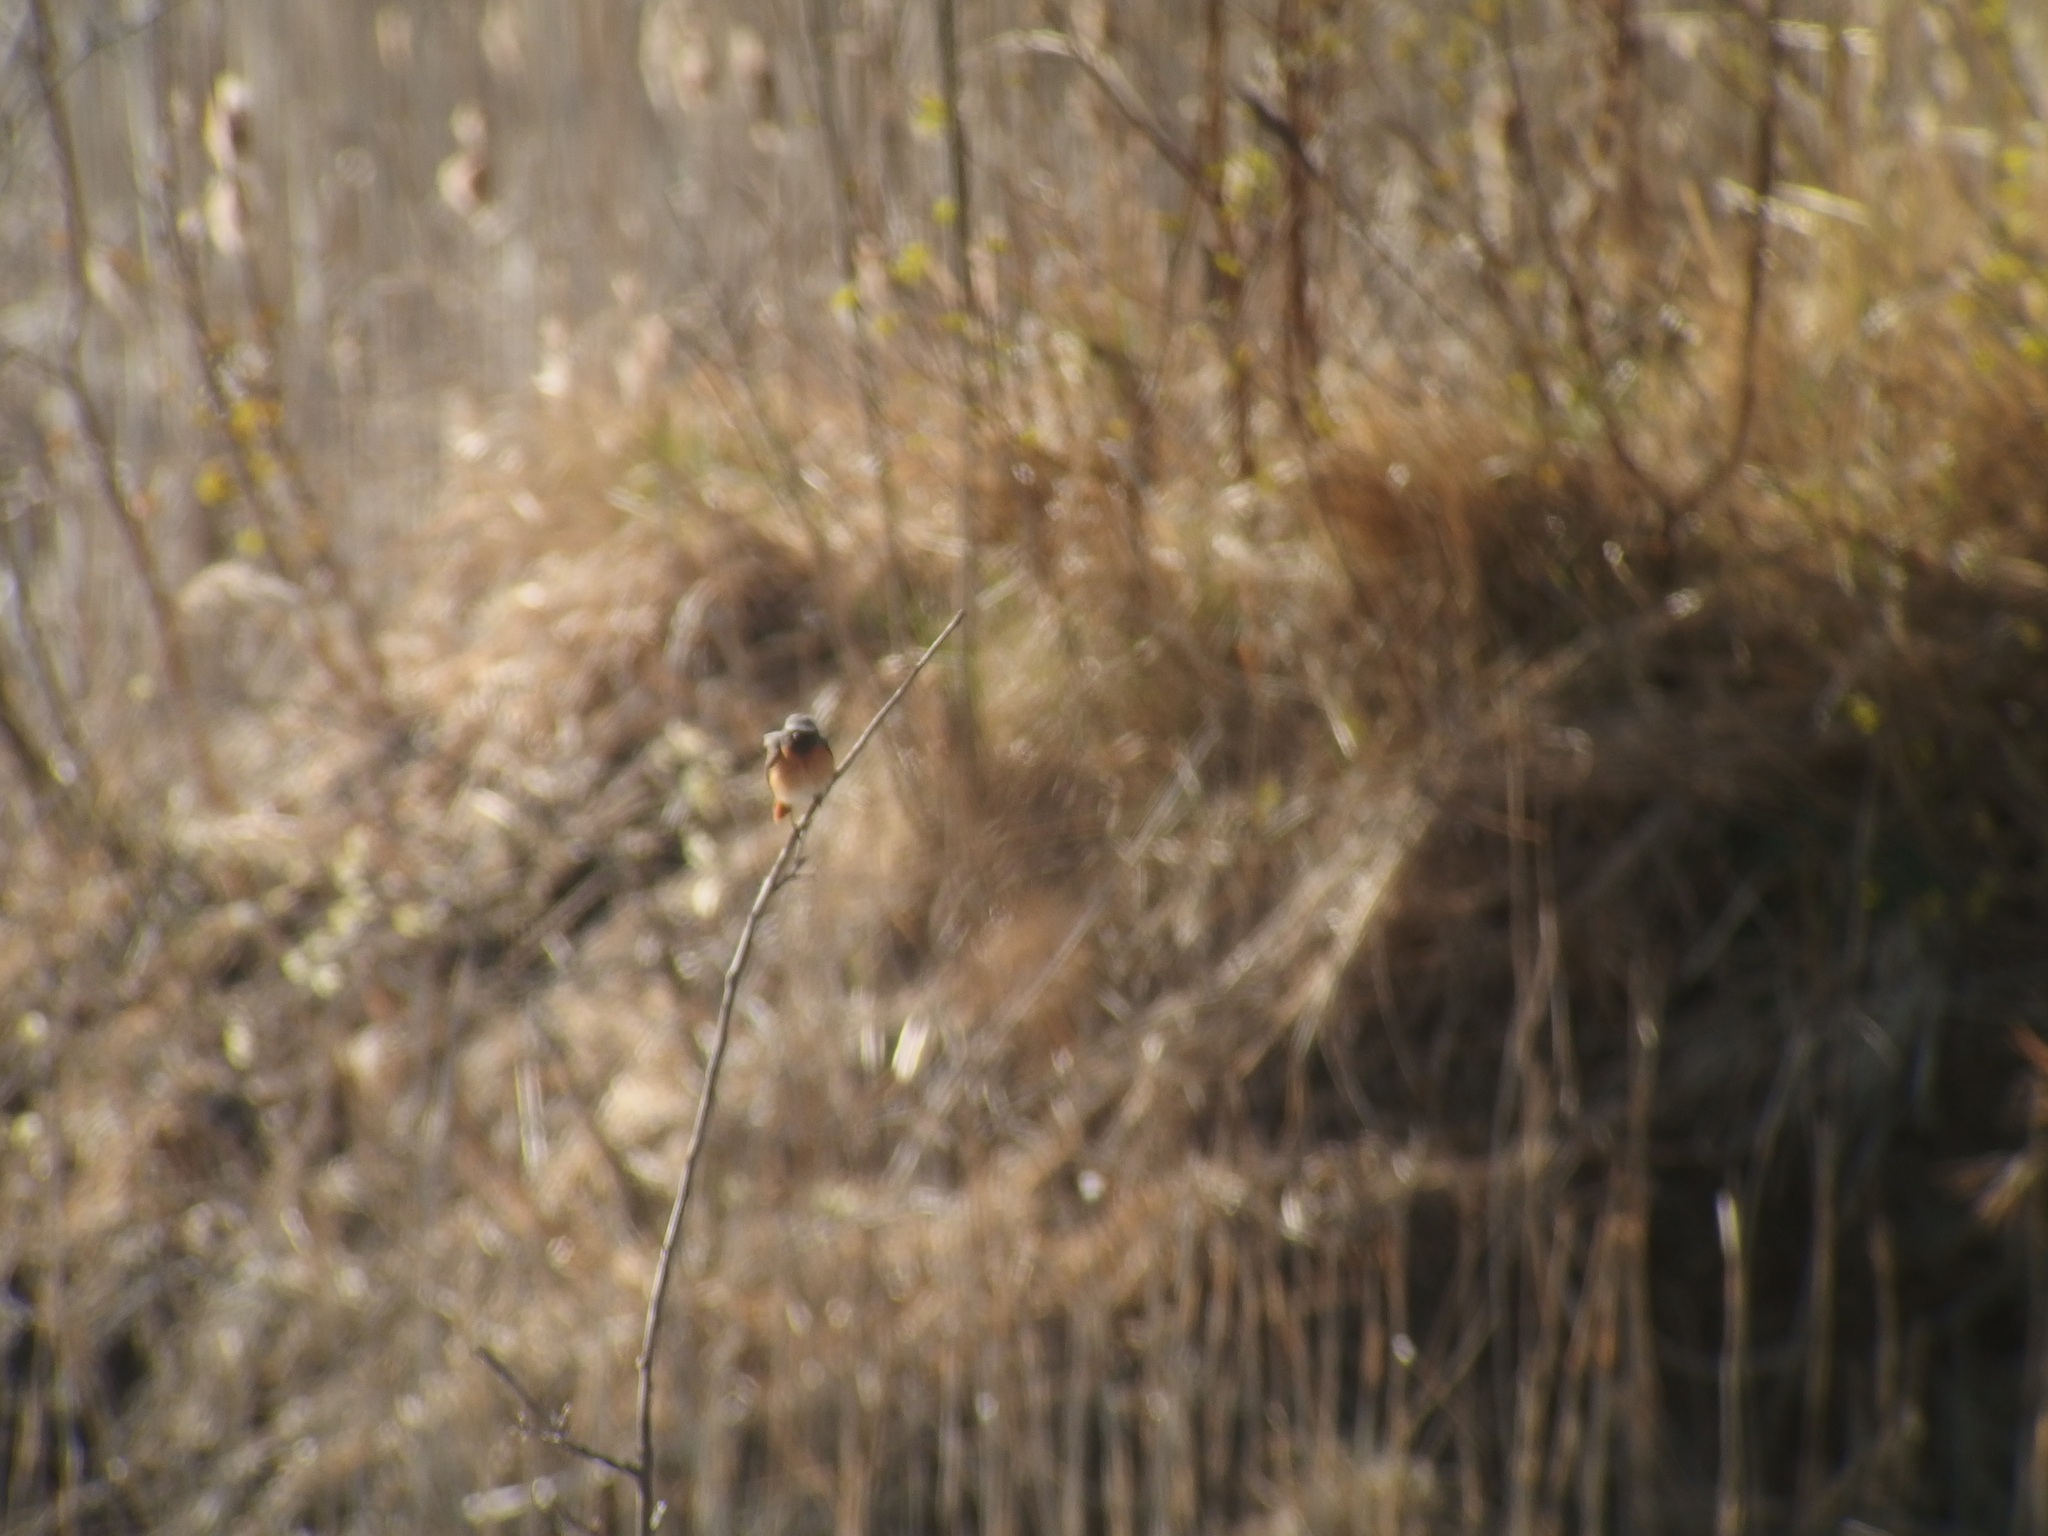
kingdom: Animalia
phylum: Chordata
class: Aves
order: Passeriformes
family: Muscicapidae
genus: Phoenicurus
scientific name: Phoenicurus phoenicurus
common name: Common redstart
